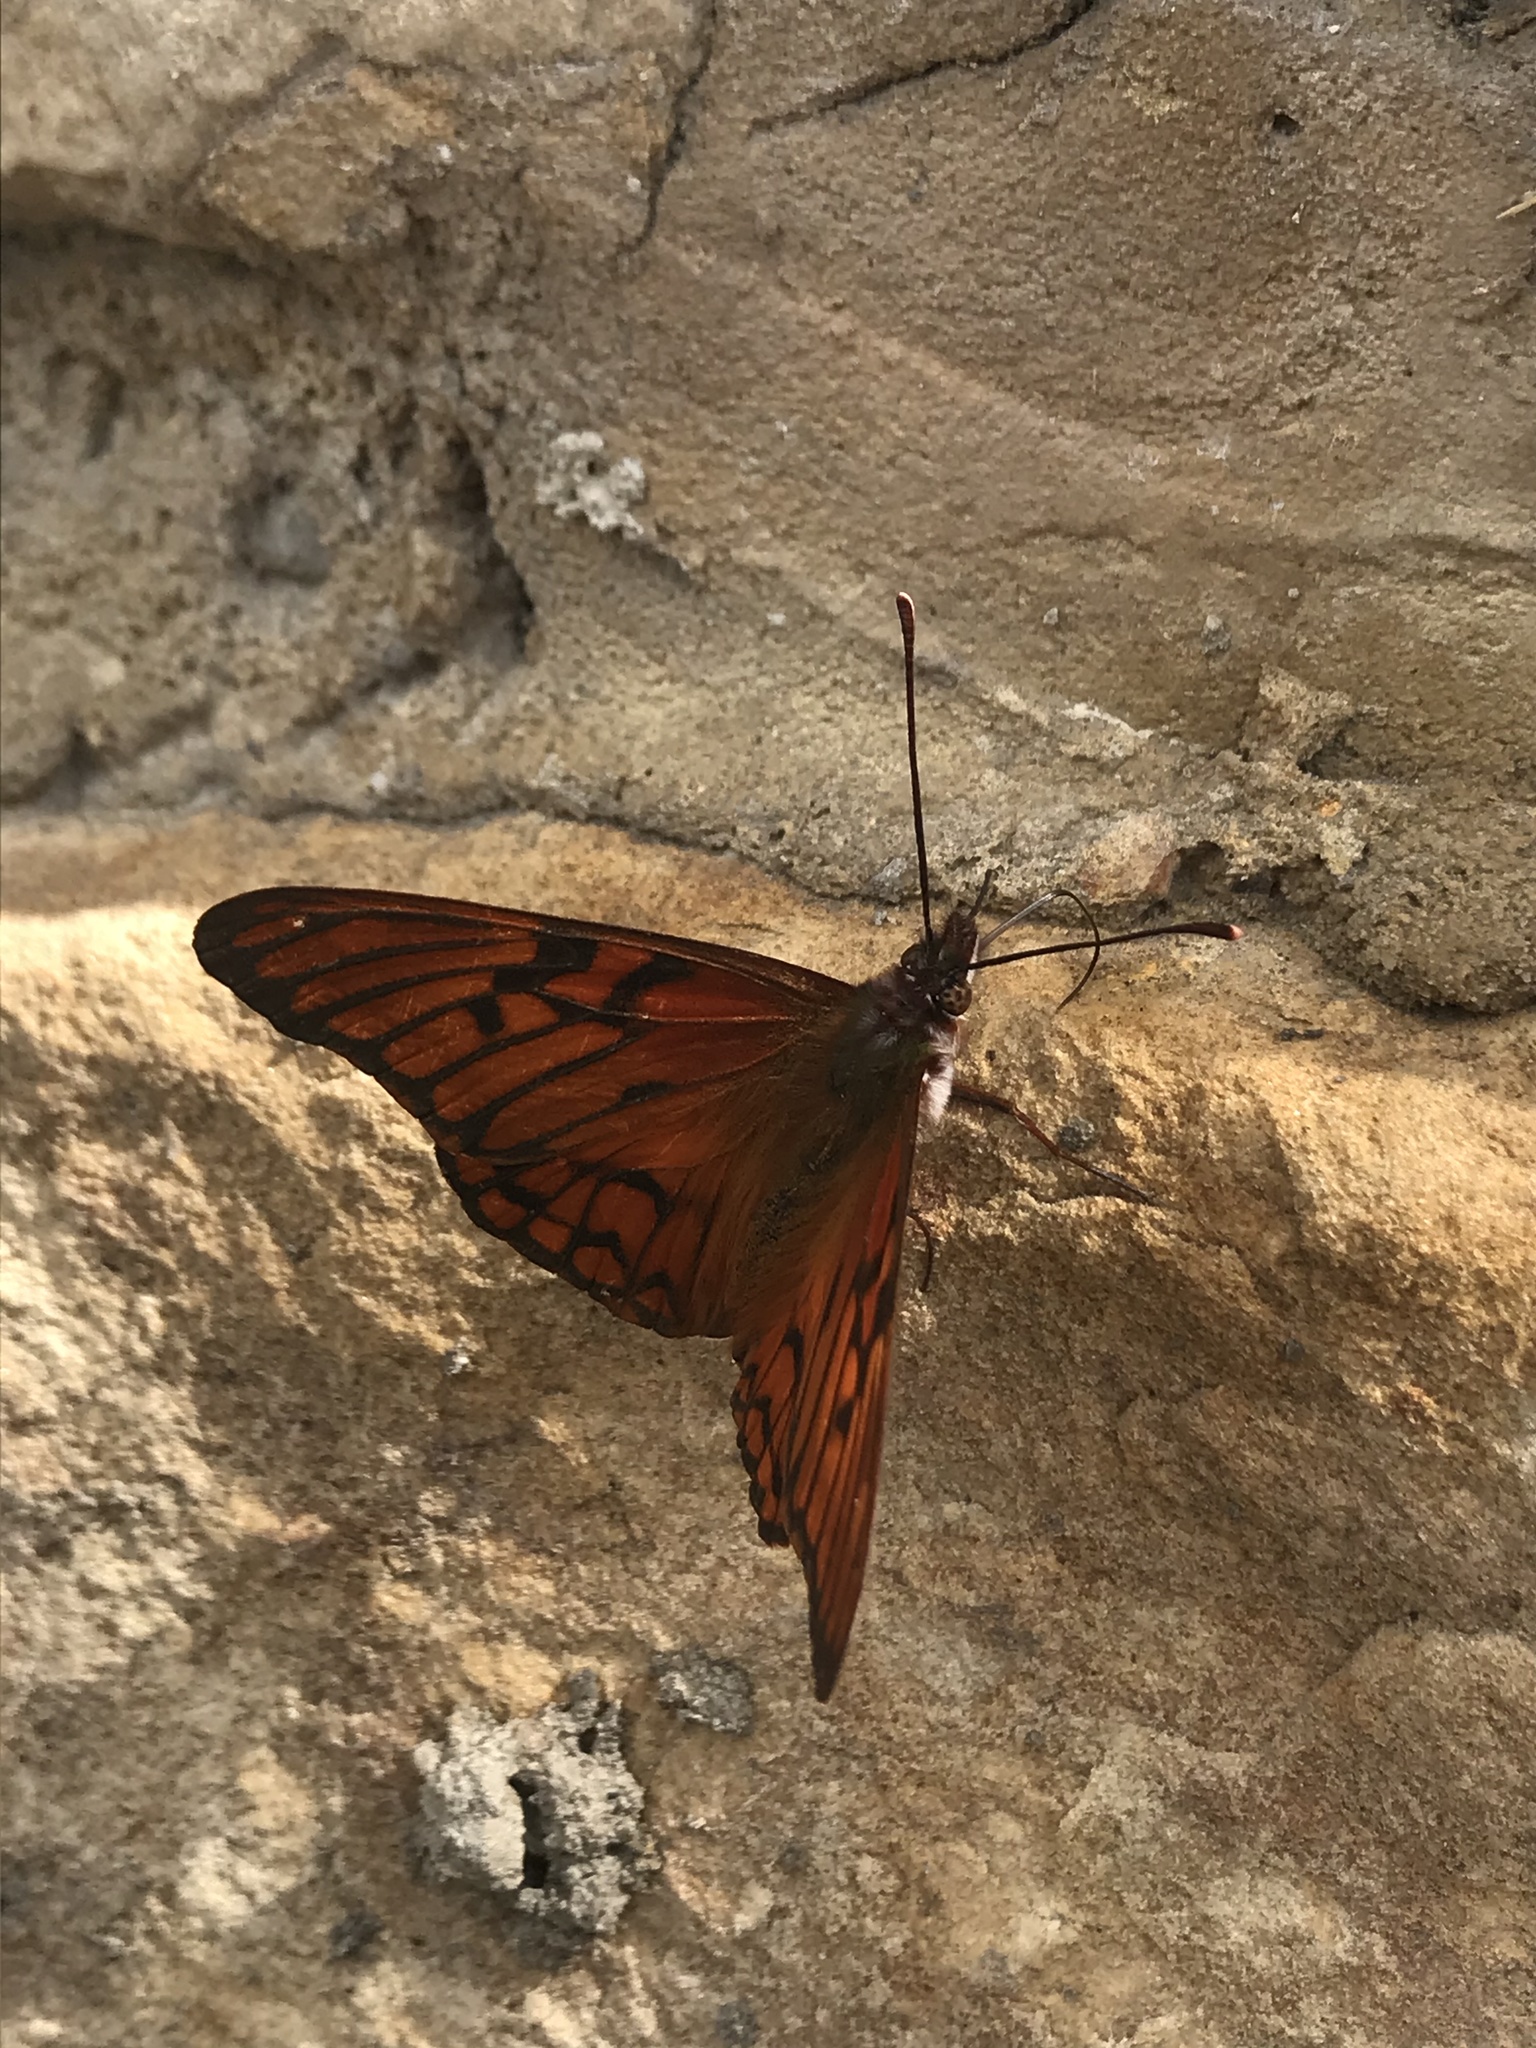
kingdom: Animalia
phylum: Arthropoda
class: Insecta
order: Lepidoptera
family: Nymphalidae
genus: Dione
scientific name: Dione glycera
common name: Andean silverspot
